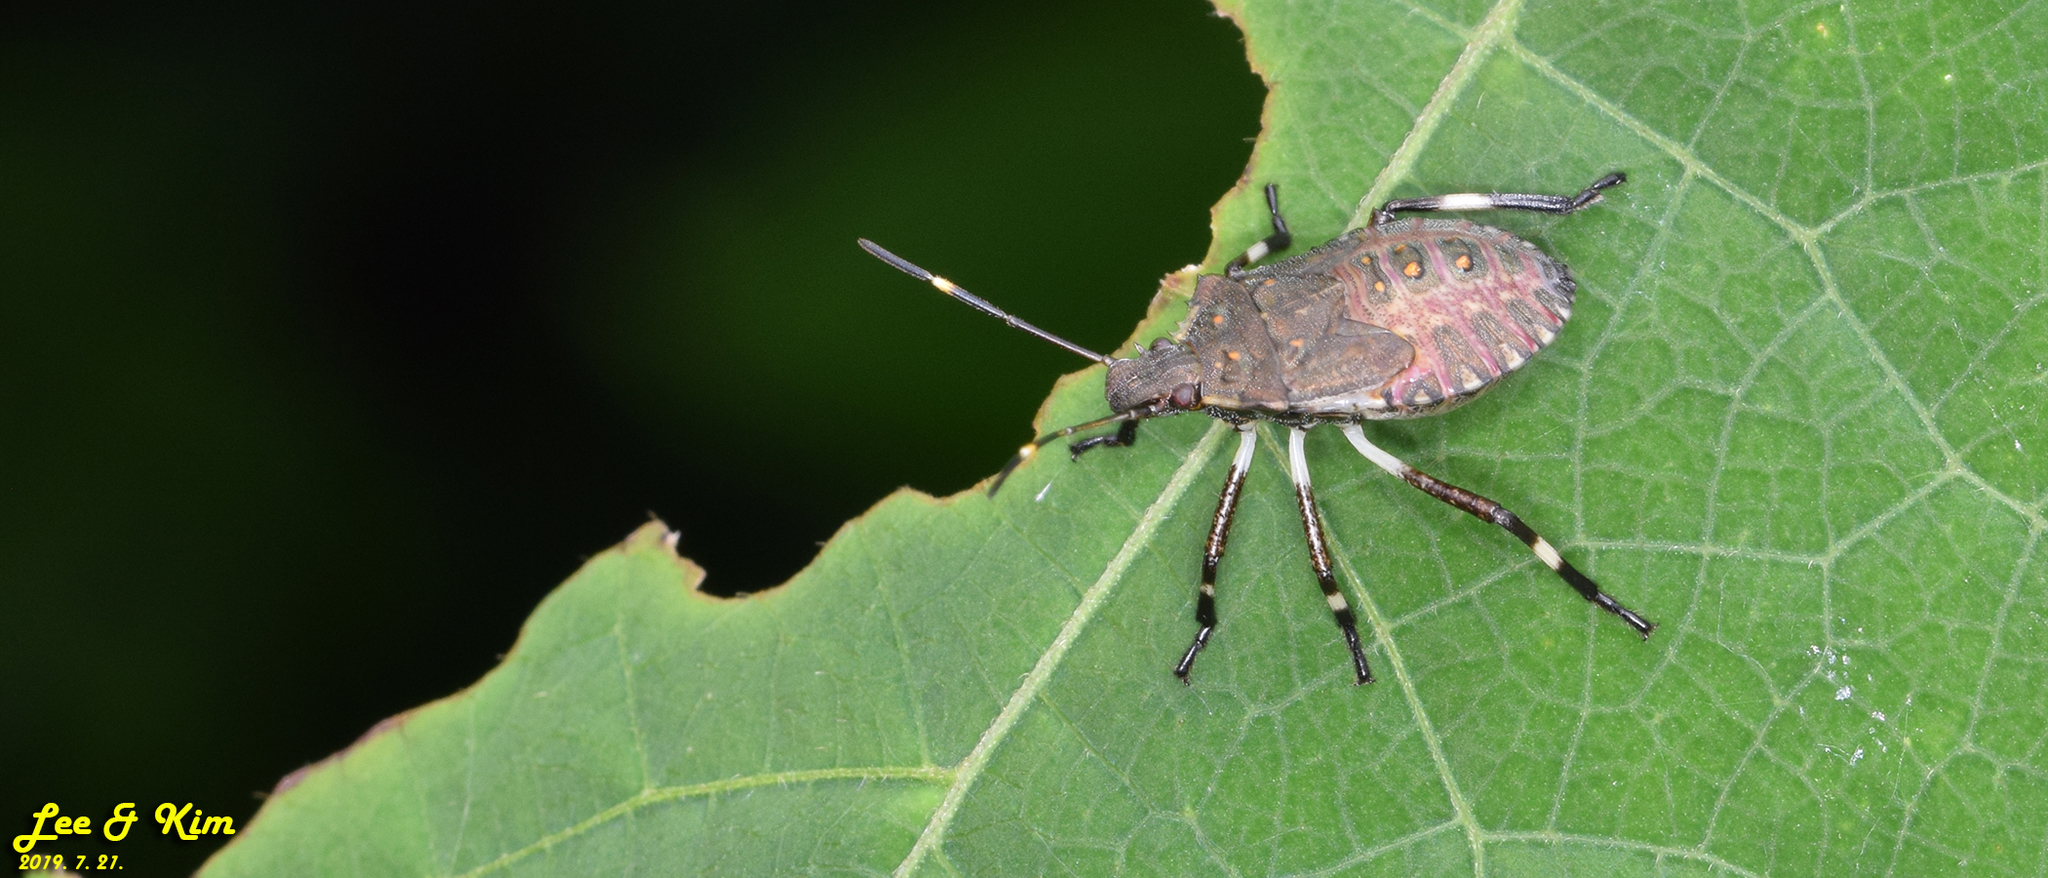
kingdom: Animalia
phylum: Arthropoda
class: Insecta
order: Hemiptera
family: Pentatomidae
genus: Halyomorpha
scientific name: Halyomorpha halys
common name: Brown marmorated stink bug
